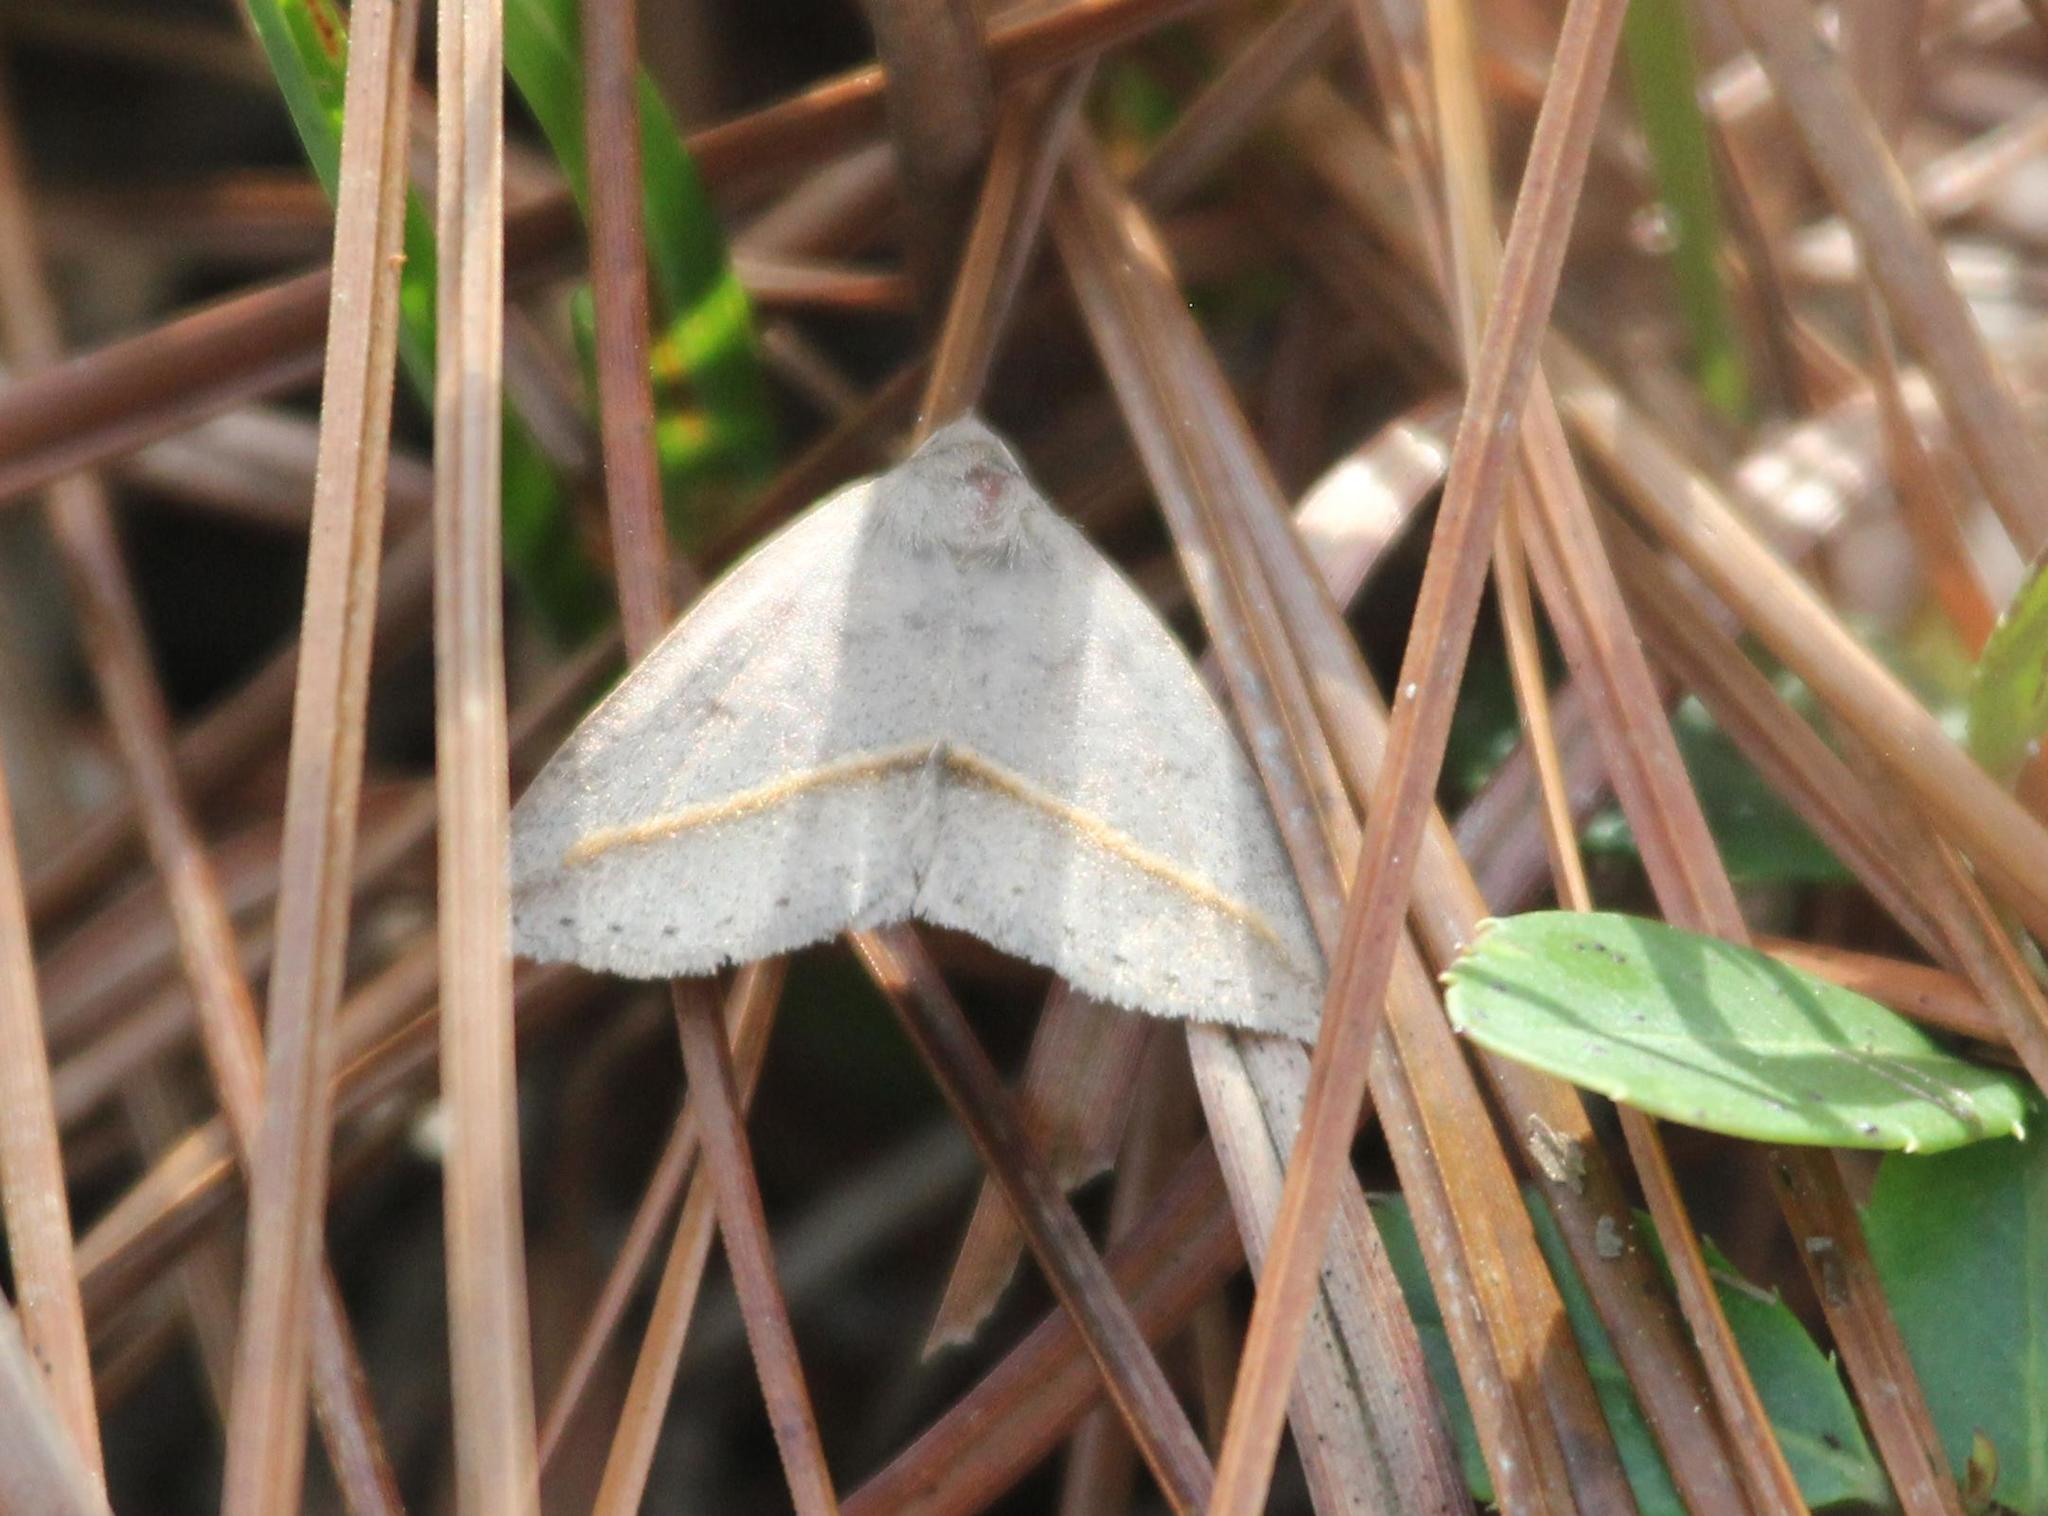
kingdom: Animalia
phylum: Arthropoda
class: Insecta
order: Lepidoptera
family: Erebidae
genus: Argyrostrotis
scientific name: Argyrostrotis flavistriaria
